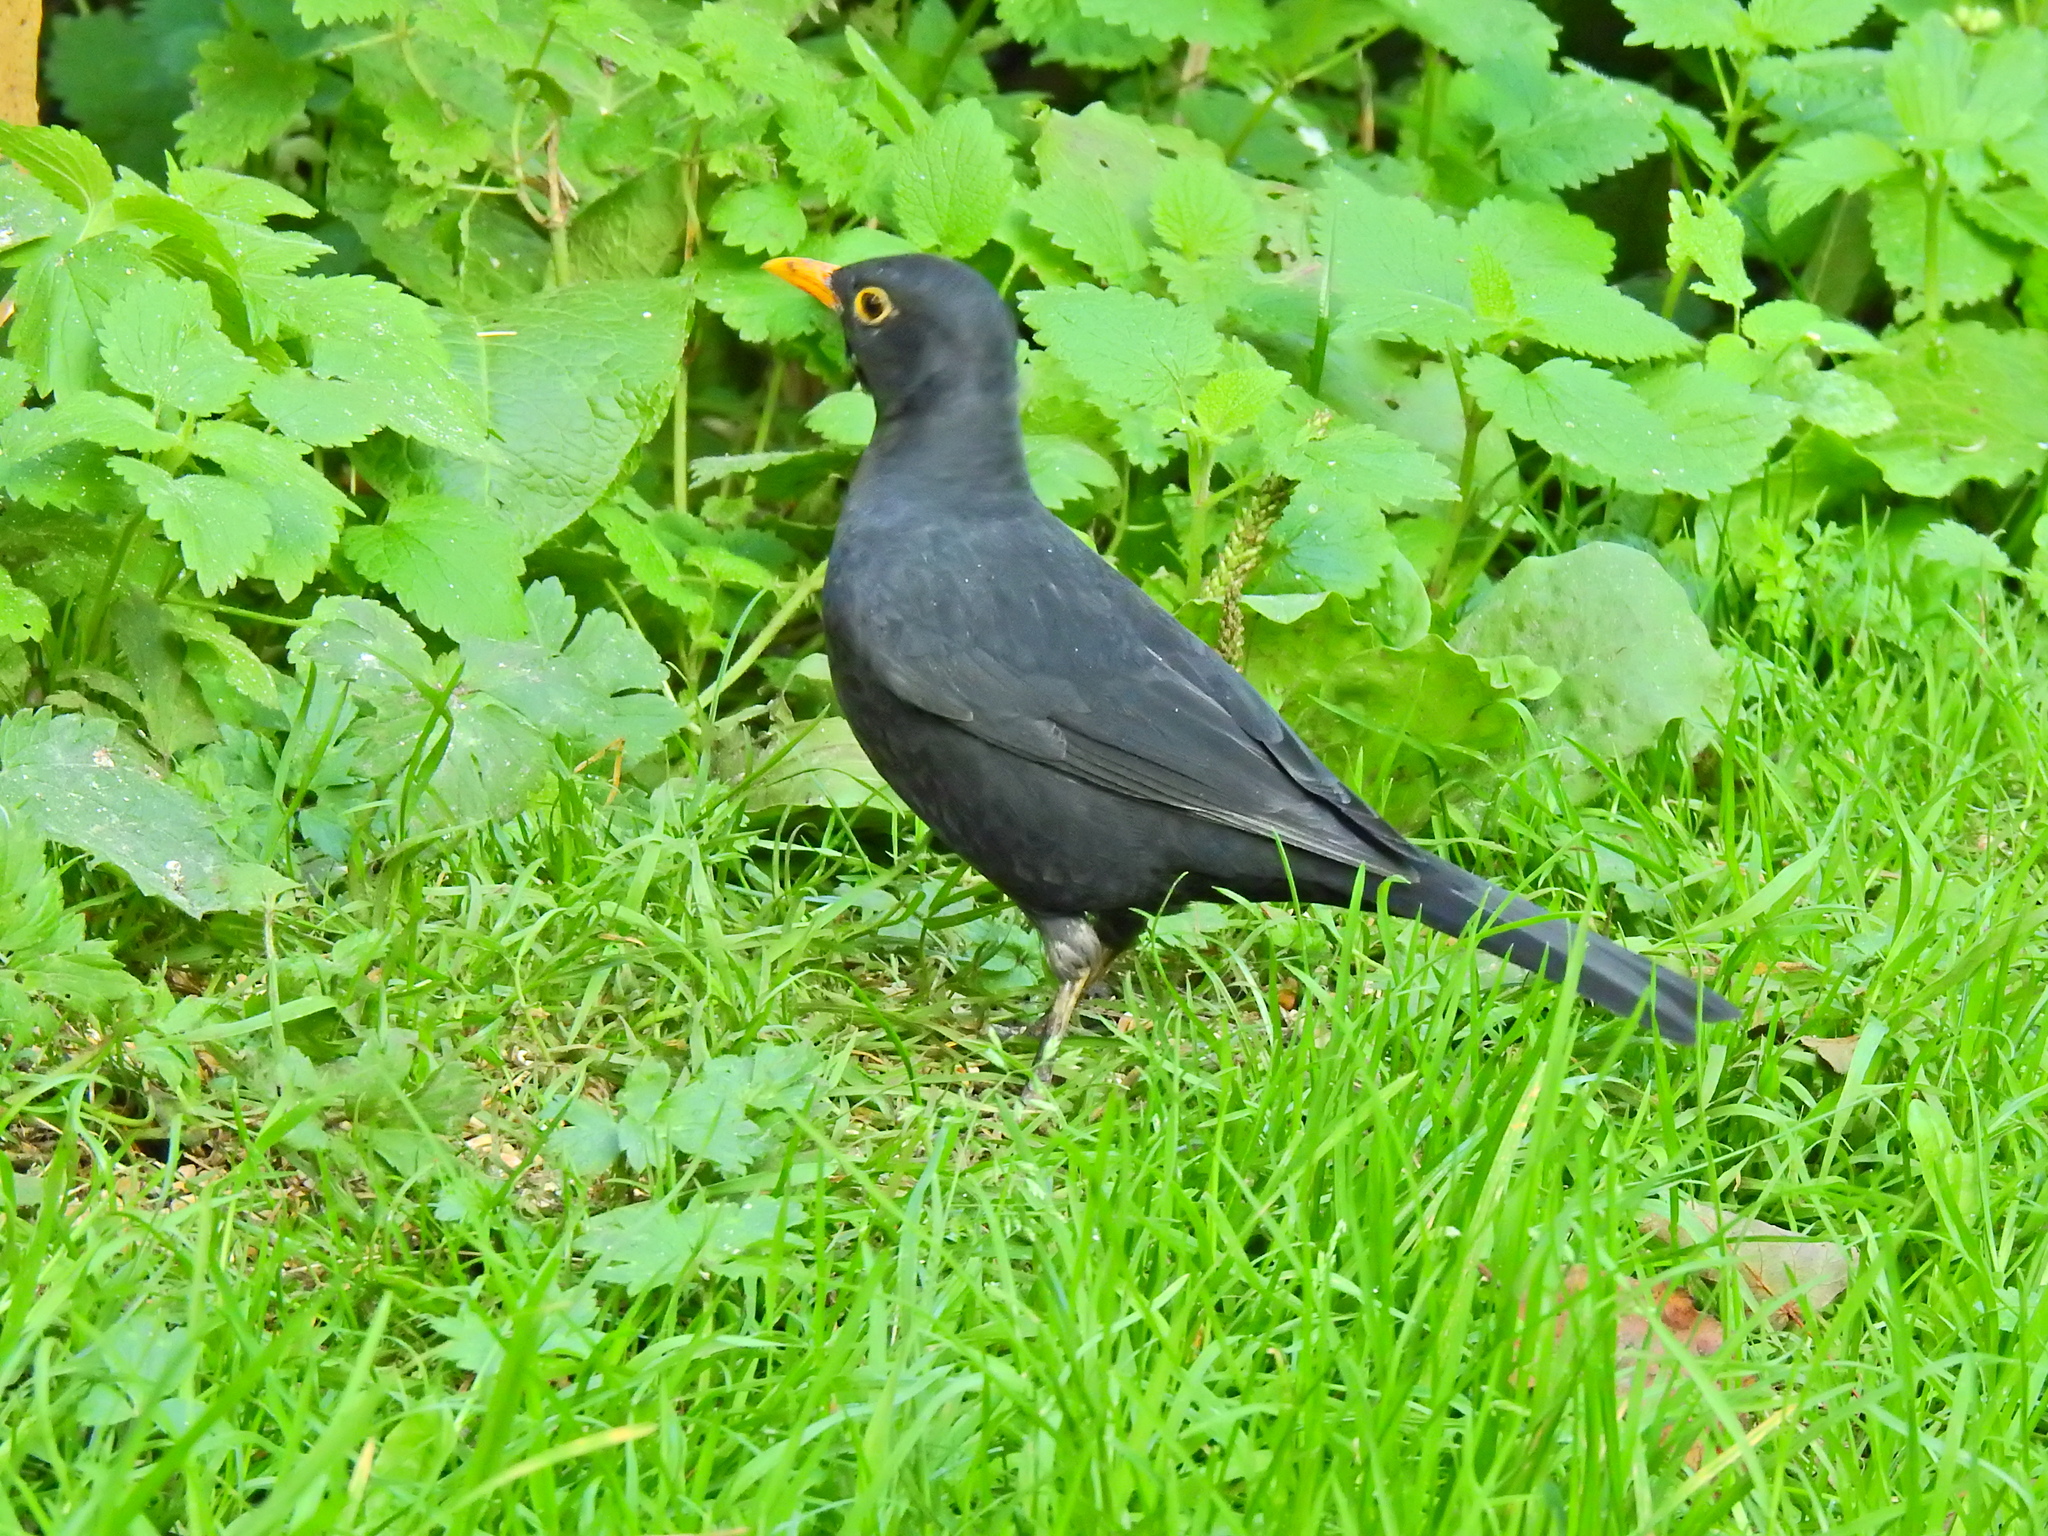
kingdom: Animalia
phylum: Chordata
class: Aves
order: Passeriformes
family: Turdidae
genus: Turdus
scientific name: Turdus merula
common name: Common blackbird
